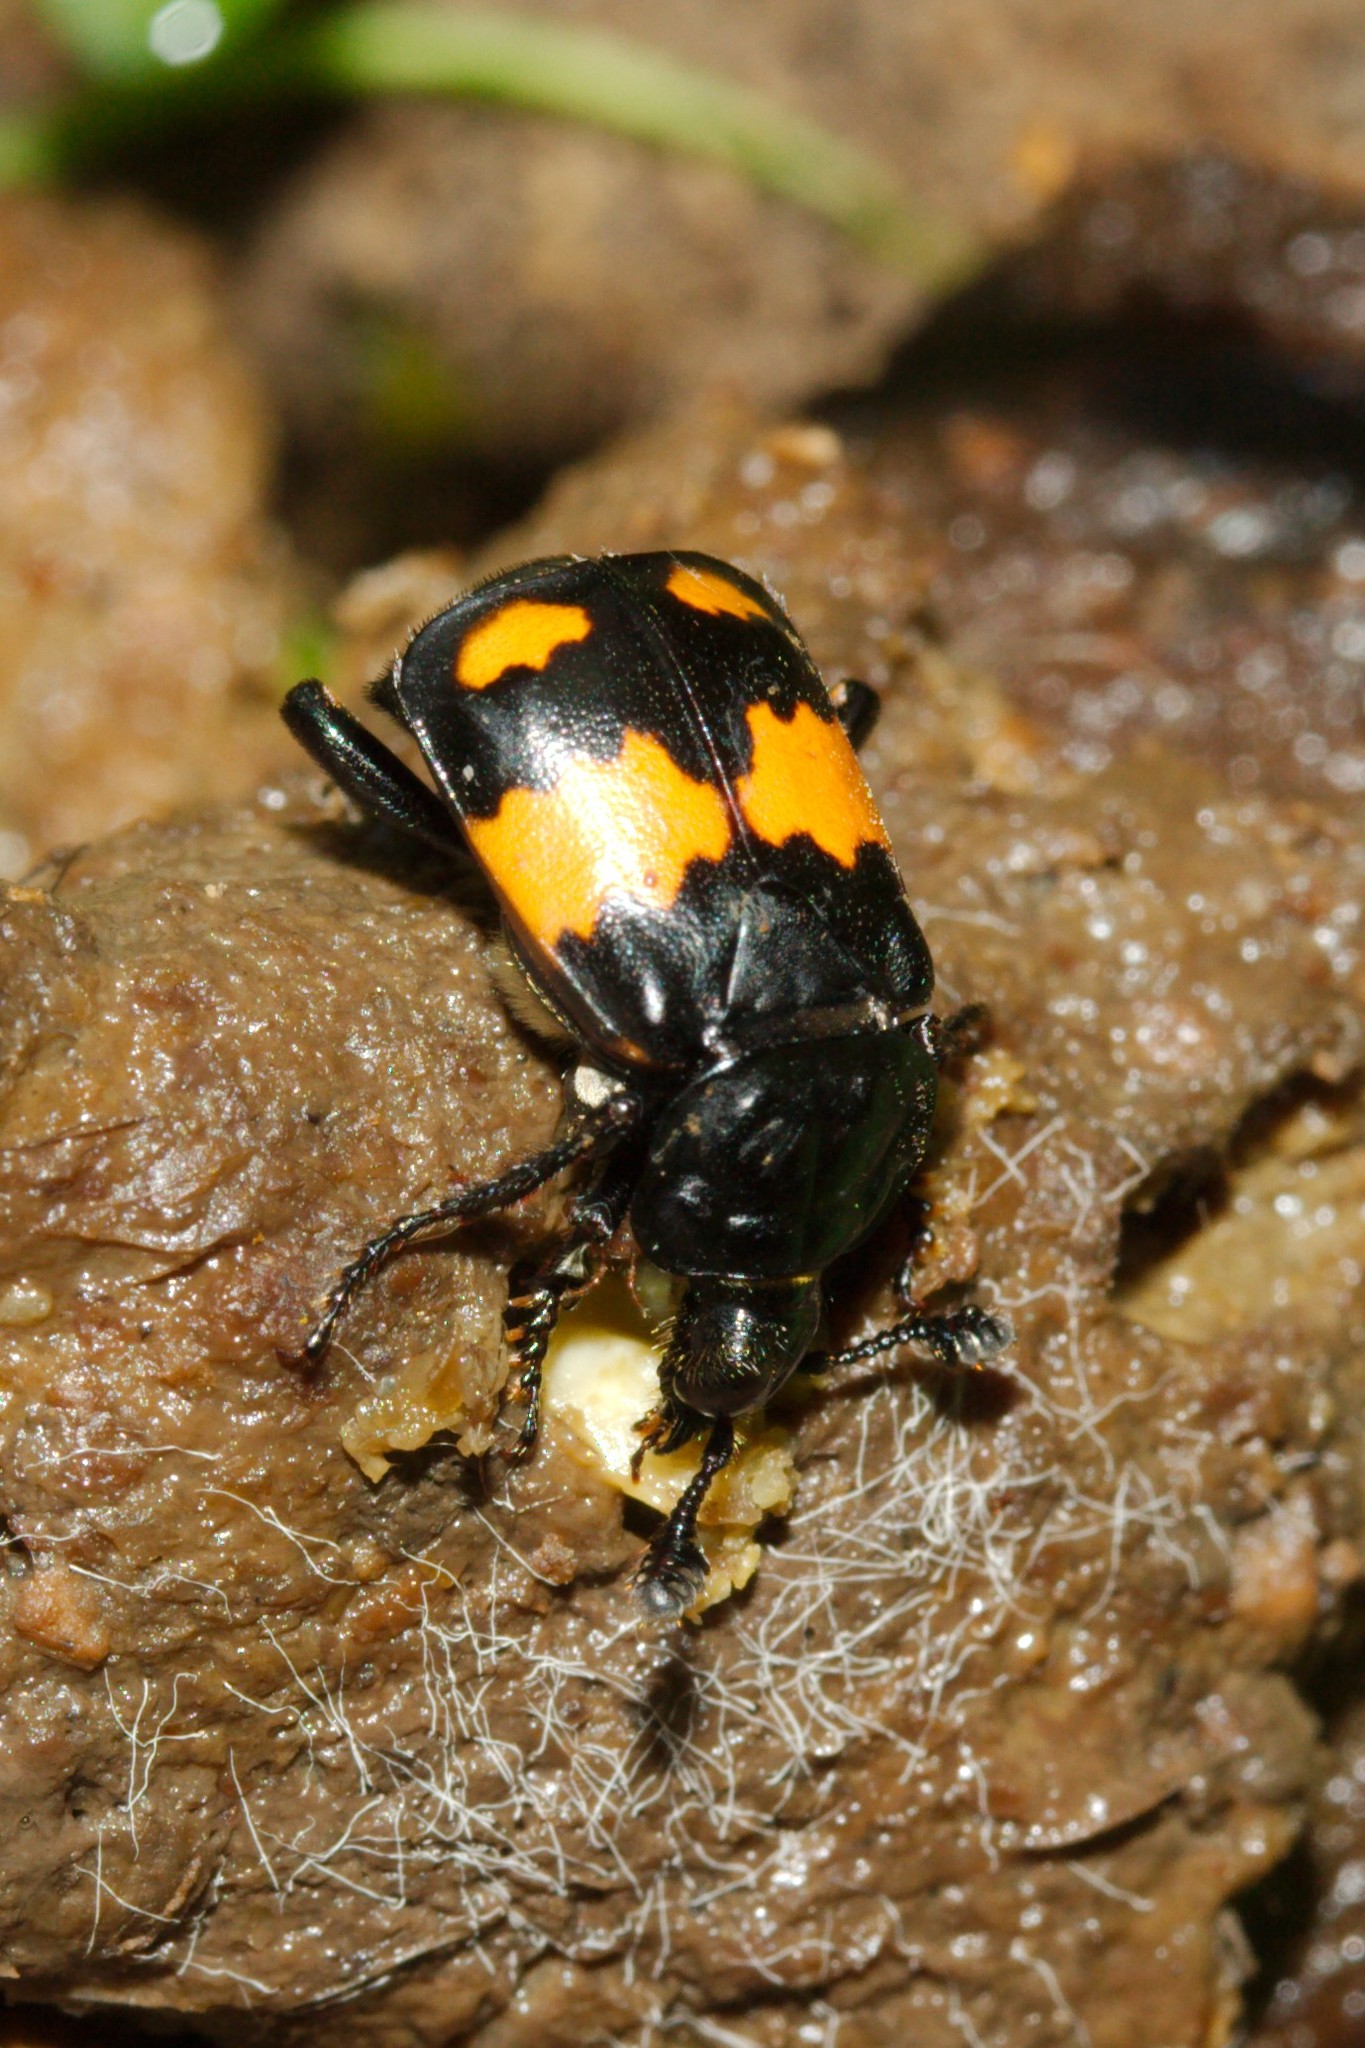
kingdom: Animalia
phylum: Arthropoda
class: Insecta
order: Coleoptera
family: Staphylinidae
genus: Nicrophorus
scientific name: Nicrophorus vespilloides
